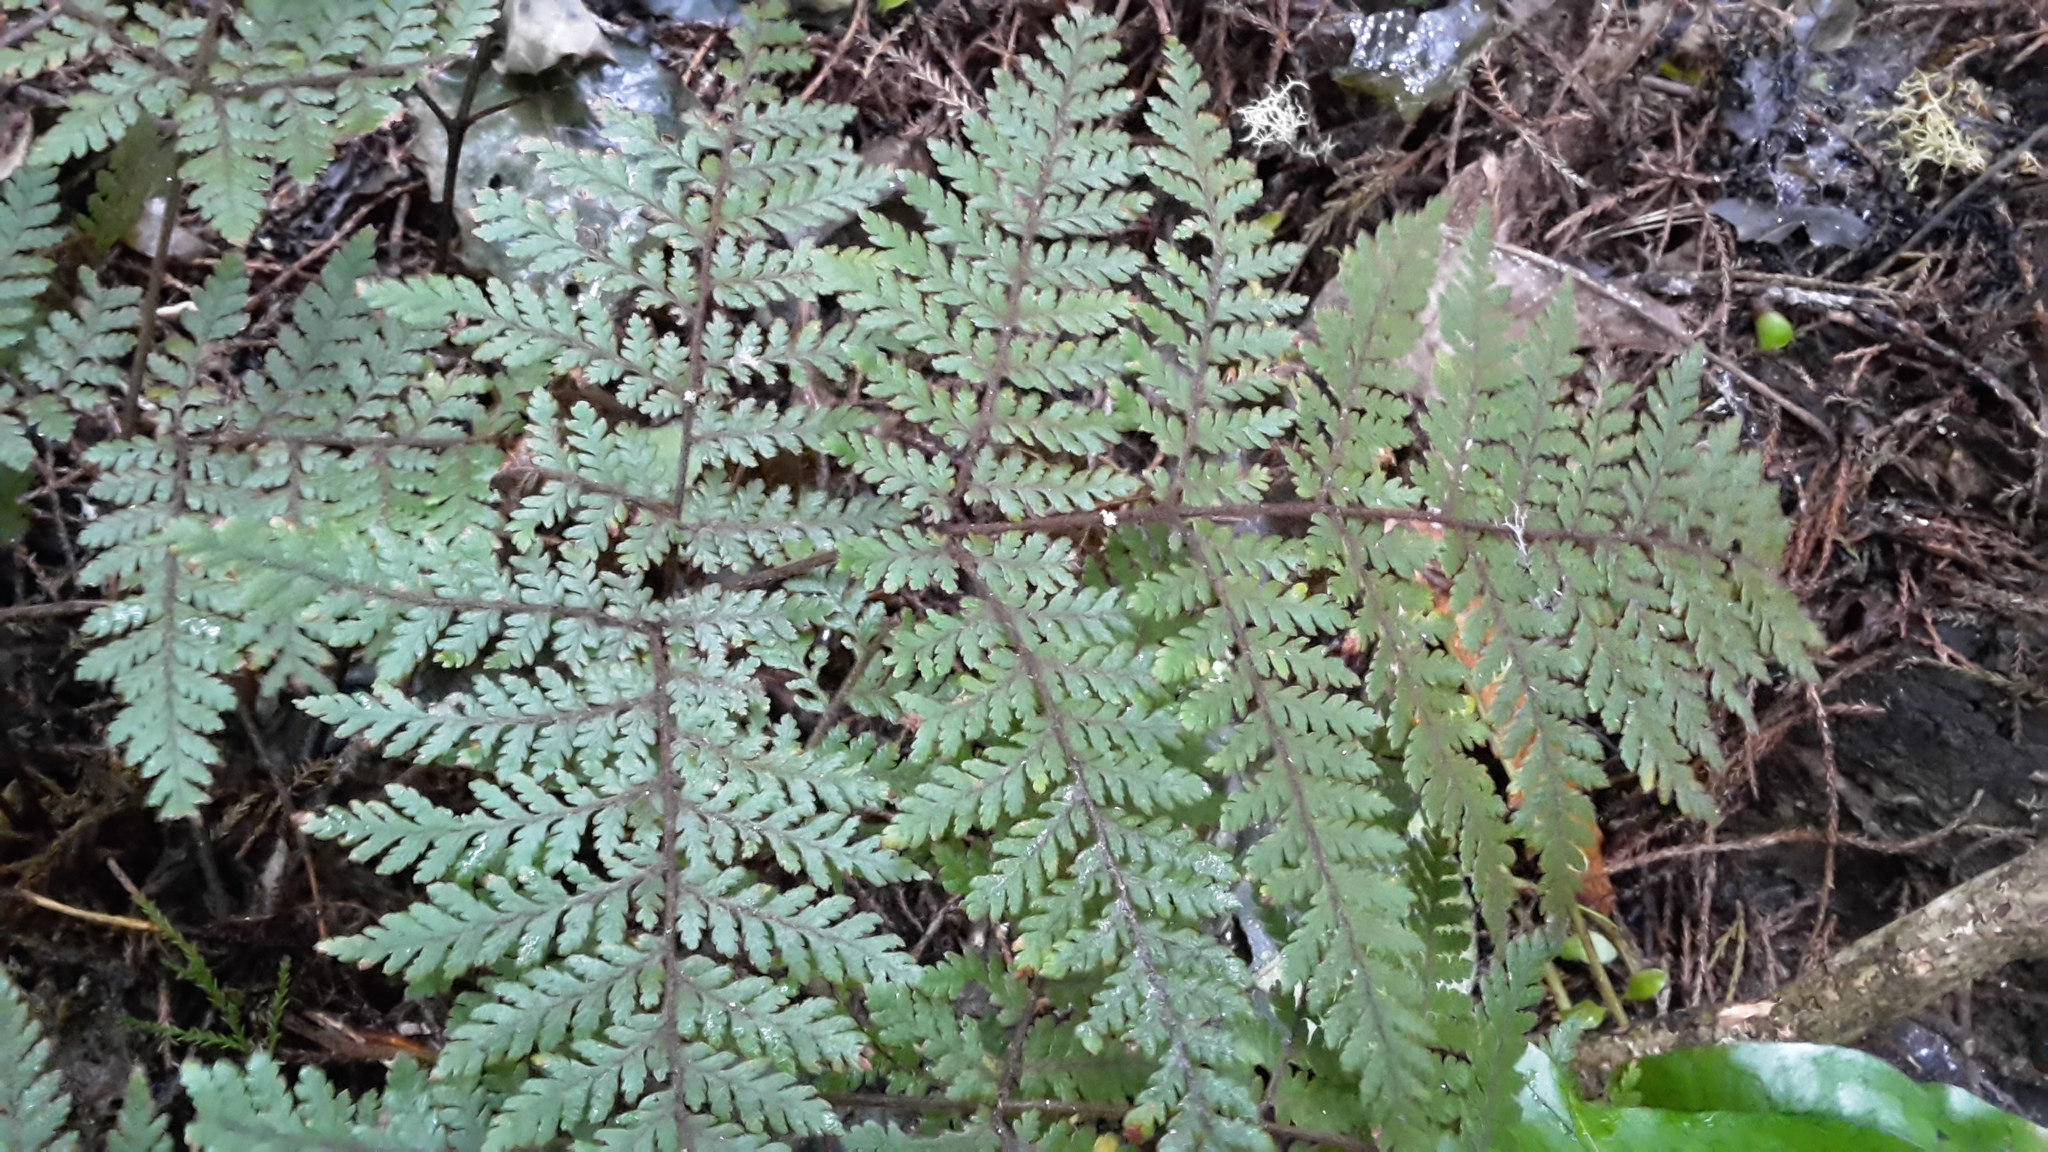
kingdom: Plantae
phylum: Tracheophyta
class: Polypodiopsida
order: Polypodiales
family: Dryopteridaceae
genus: Lastreopsis
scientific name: Lastreopsis velutina
